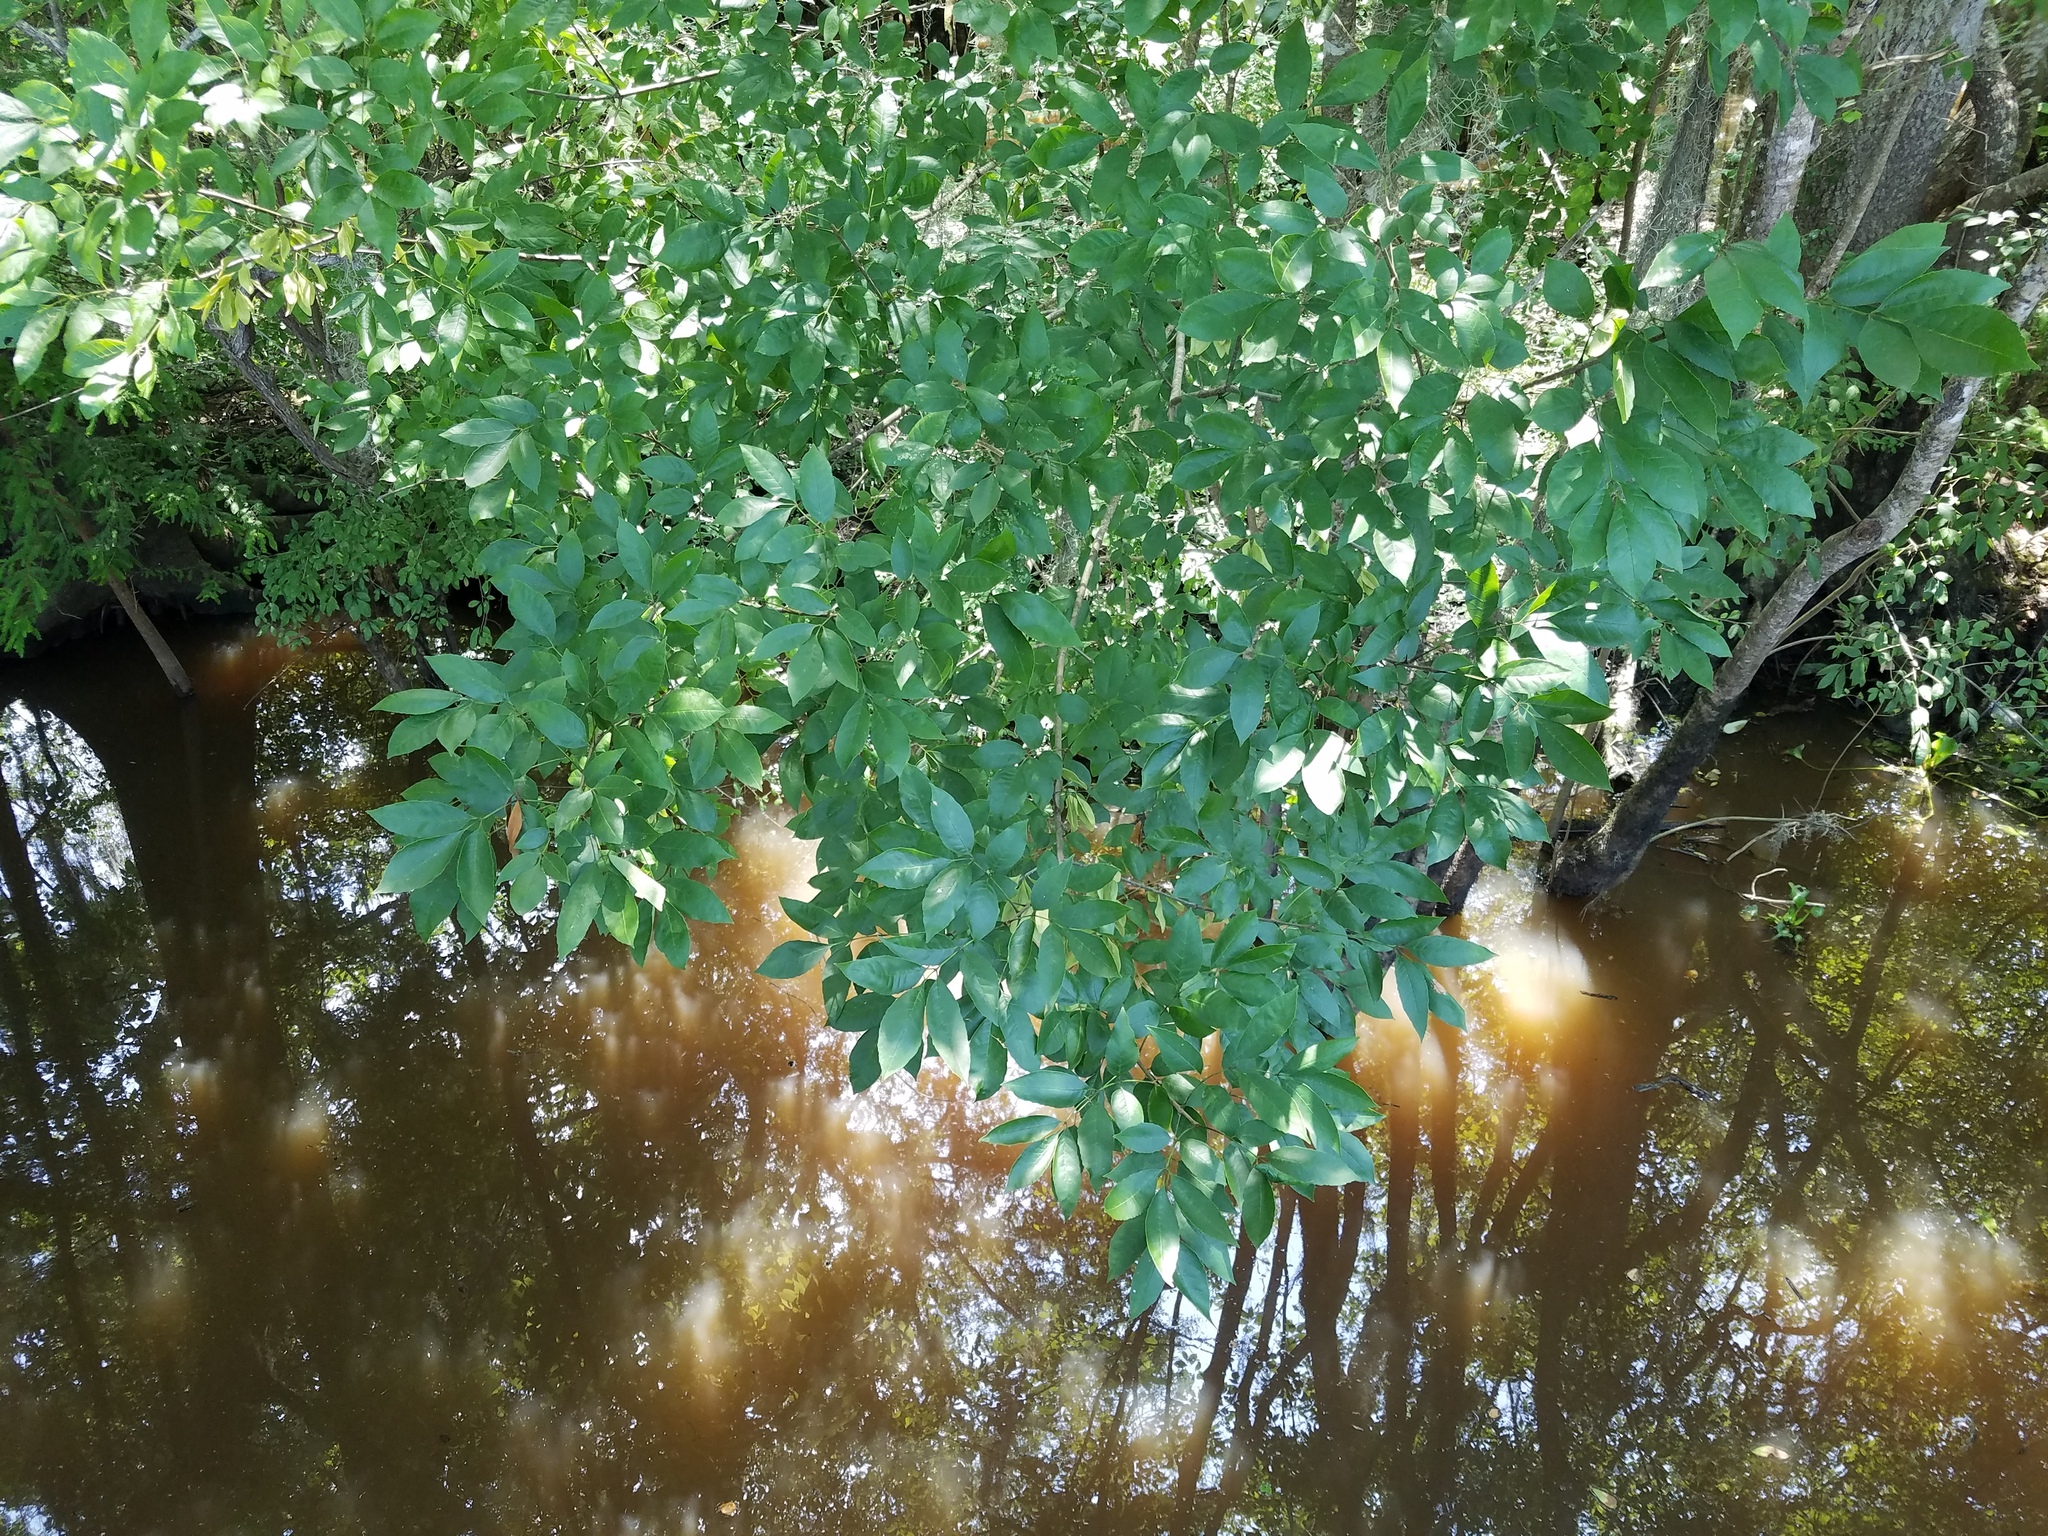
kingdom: Plantae
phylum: Tracheophyta
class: Magnoliopsida
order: Lamiales
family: Oleaceae
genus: Fraxinus
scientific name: Fraxinus caroliniana
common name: Carolina ash
